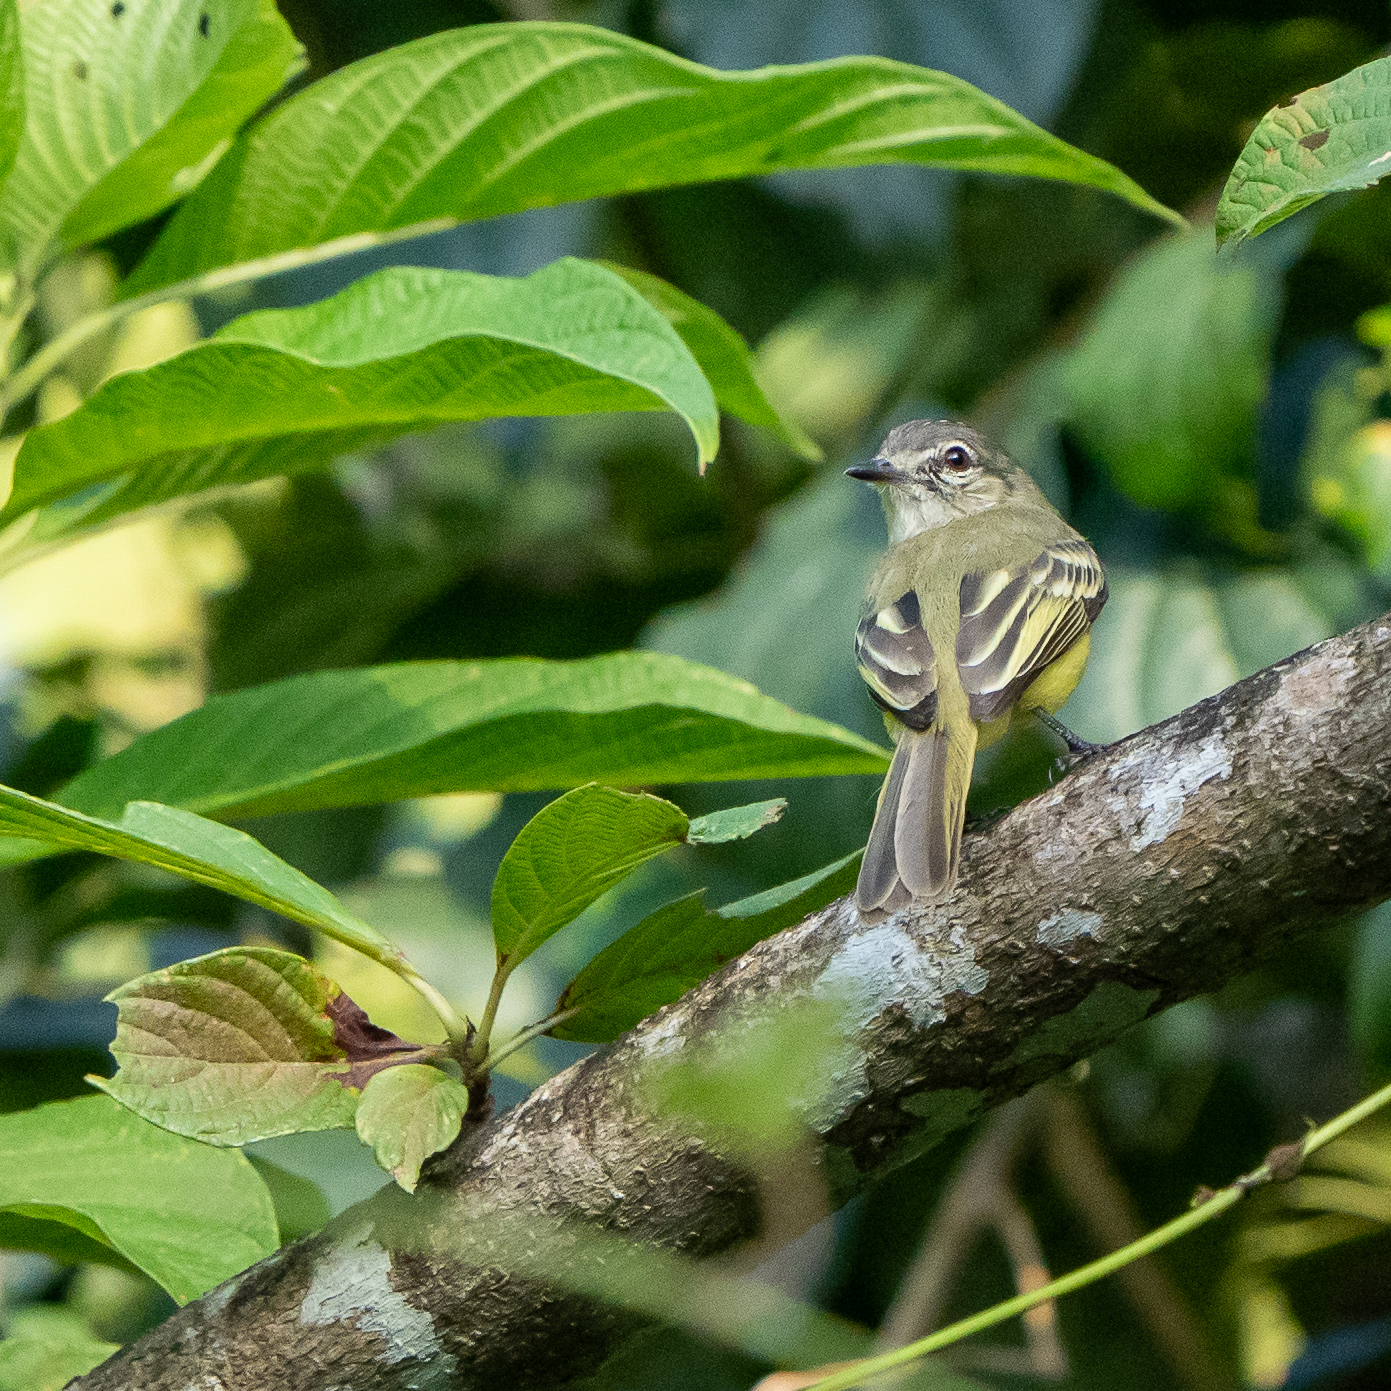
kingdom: Animalia
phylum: Chordata
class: Aves
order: Passeriformes
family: Tyrannidae
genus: Tolmomyias
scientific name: Tolmomyias sulphurescens
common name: Yellow-olive flycatcher
